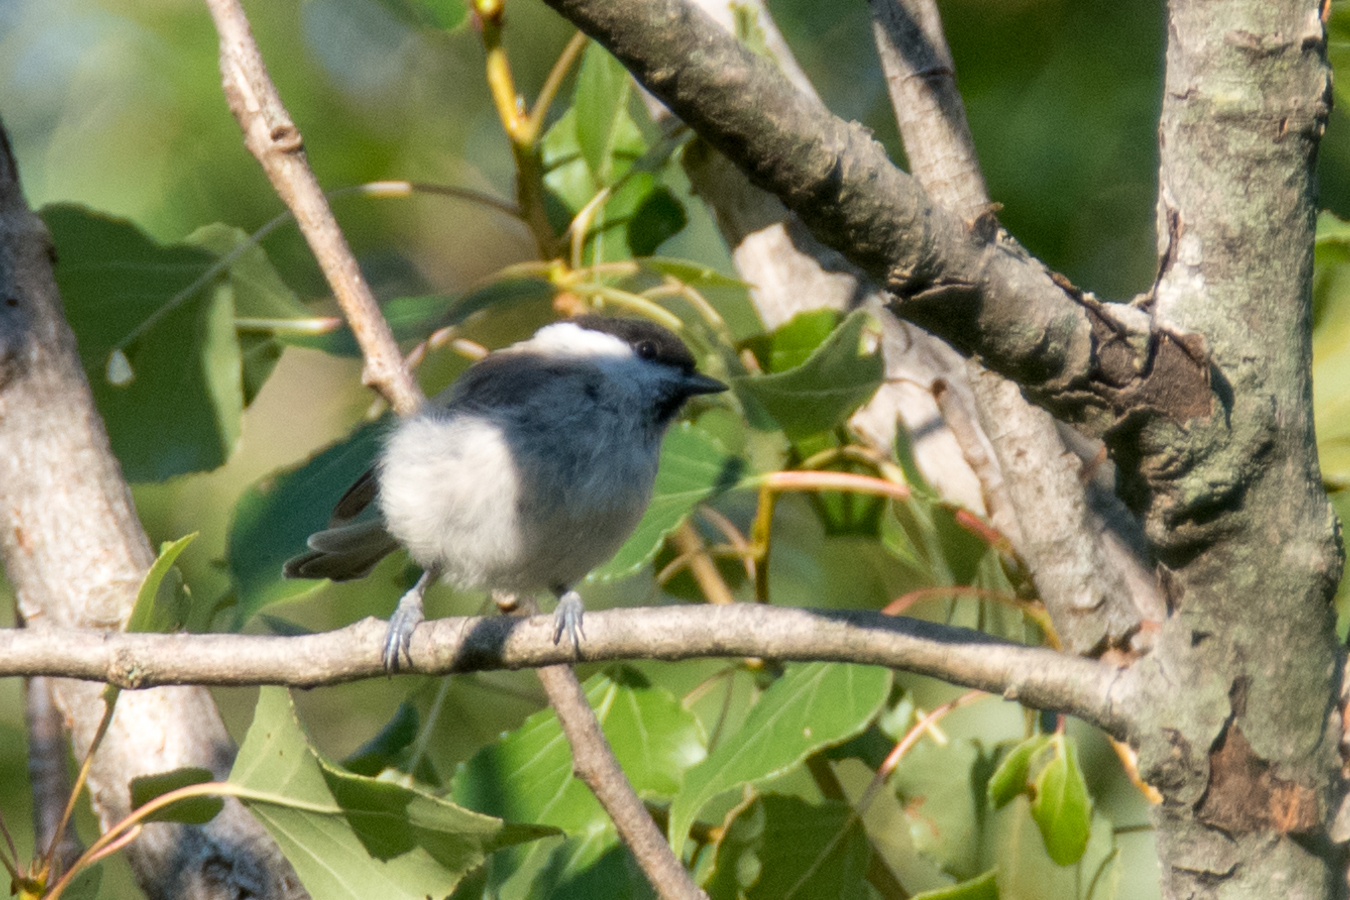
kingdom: Animalia
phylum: Chordata
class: Aves
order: Passeriformes
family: Paridae
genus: Poecile
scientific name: Poecile palustris
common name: Marsh tit
